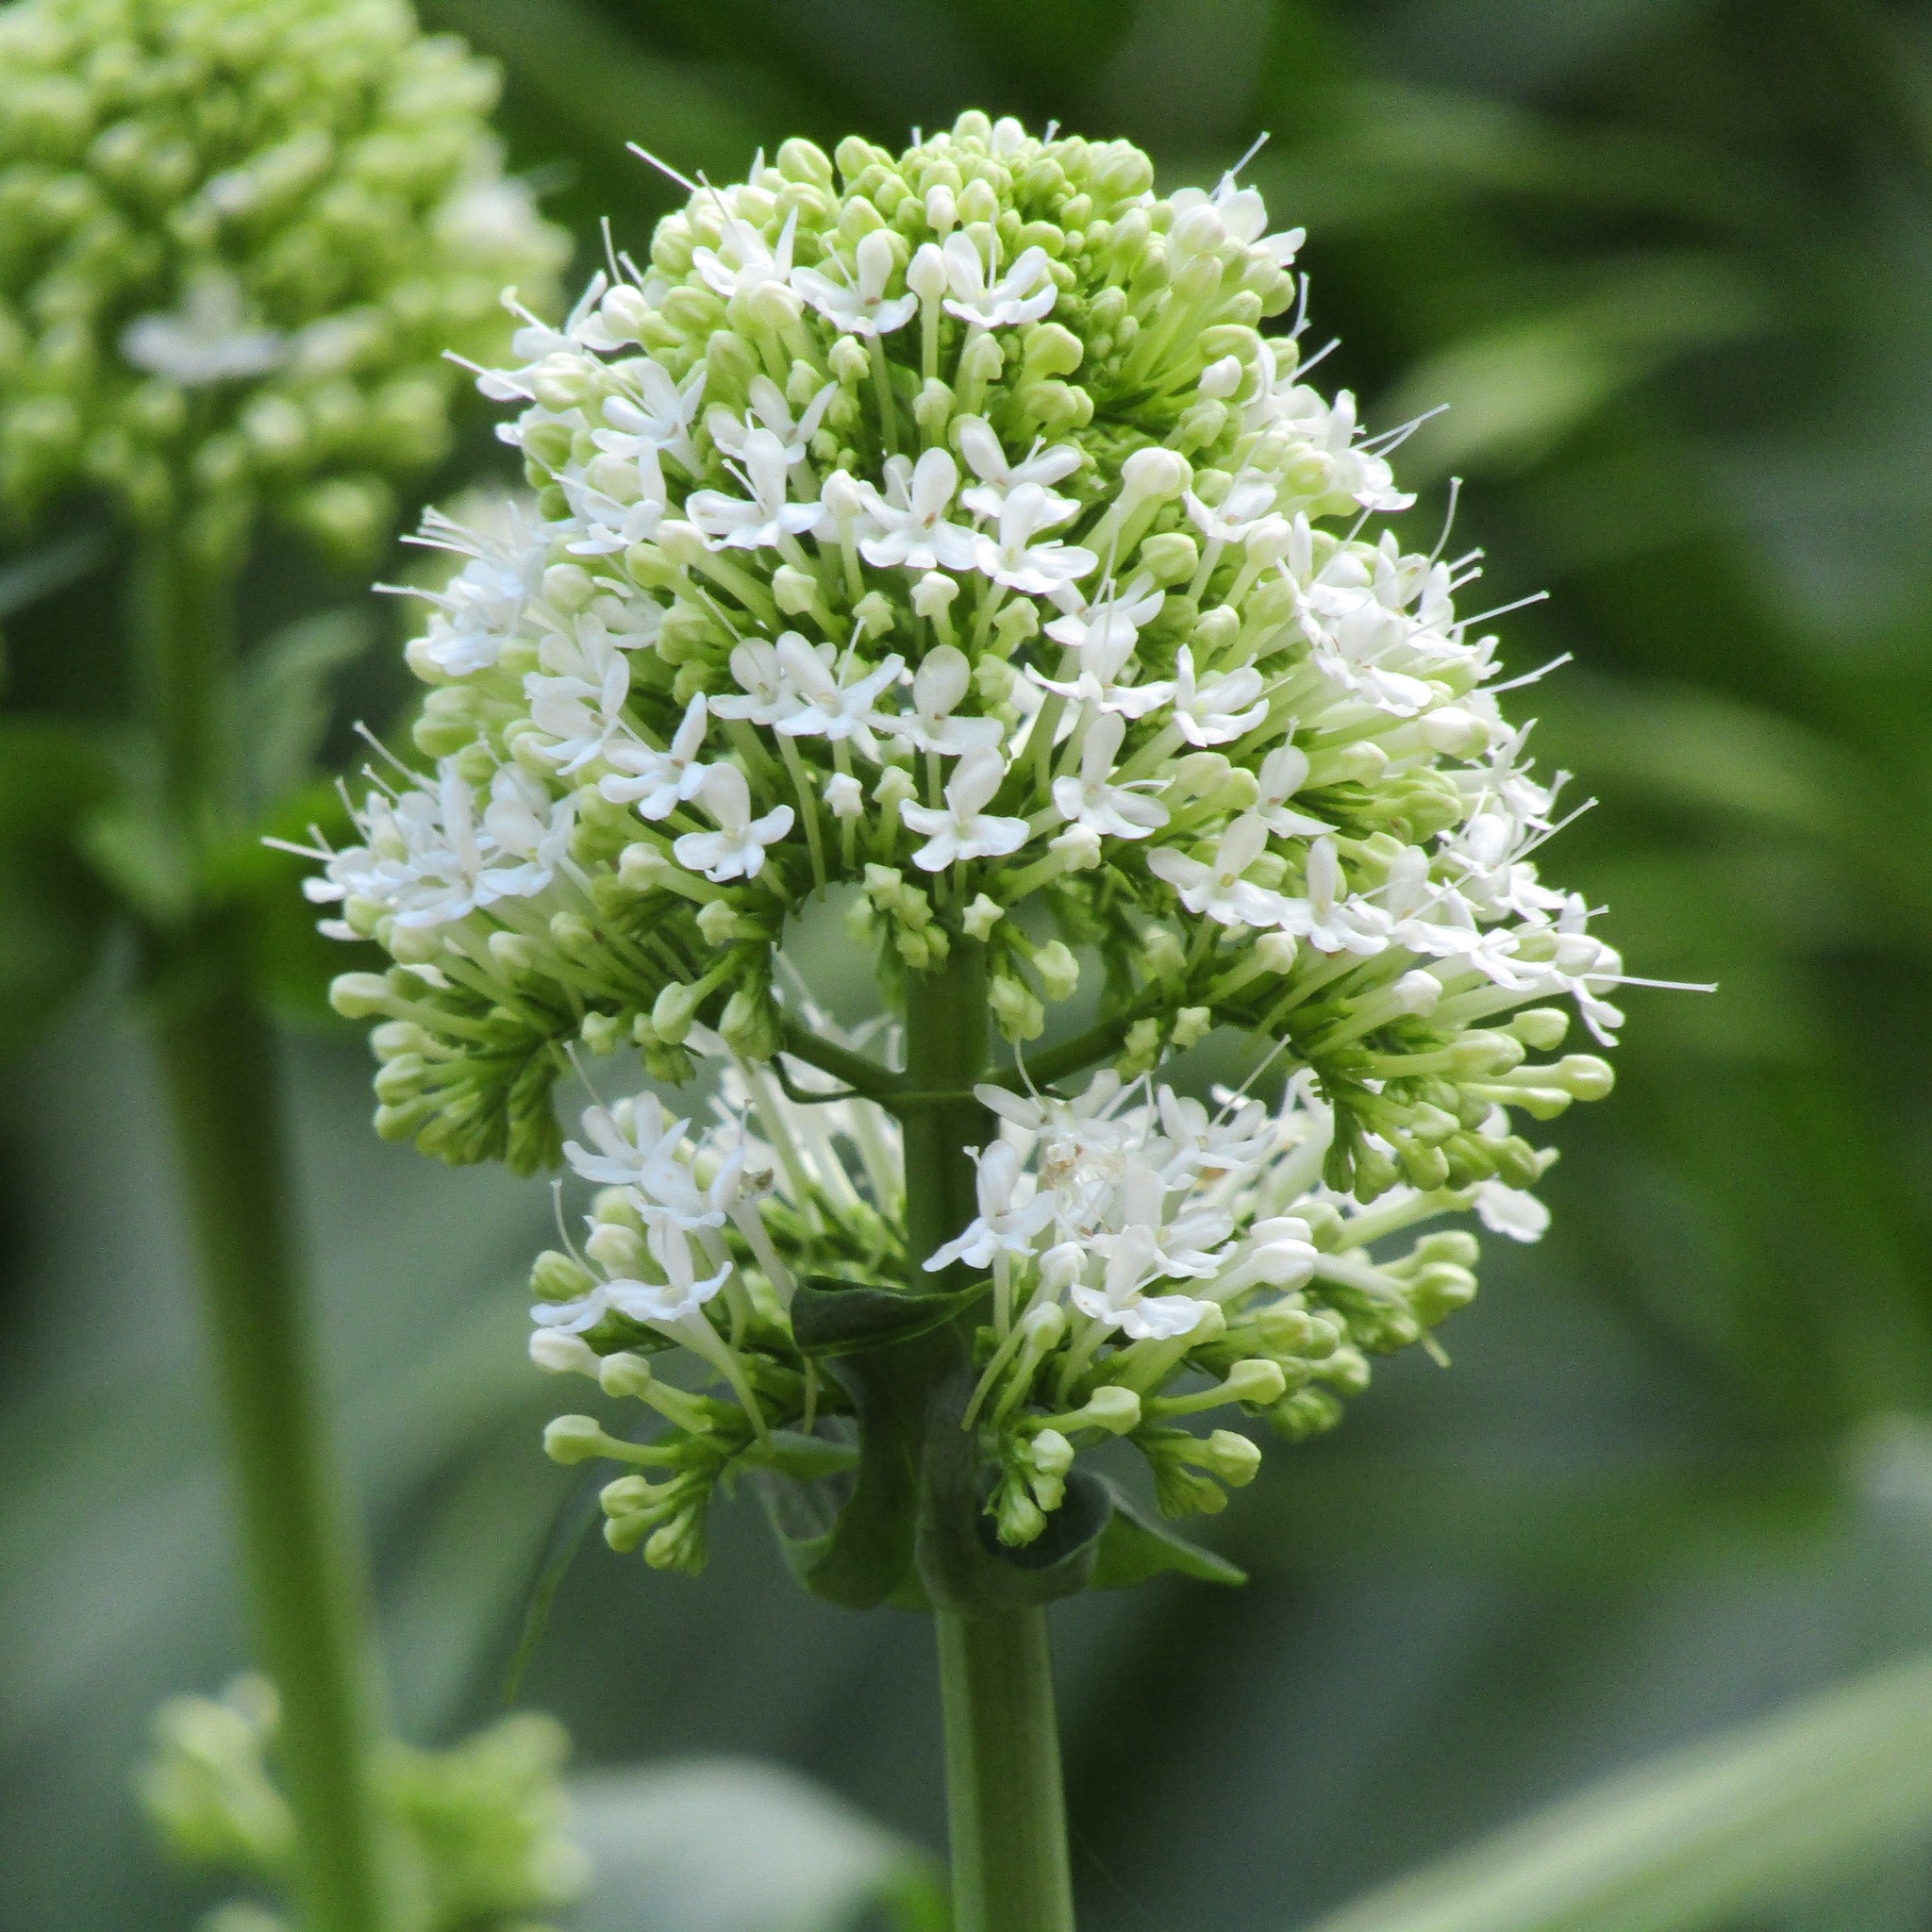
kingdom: Plantae
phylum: Tracheophyta
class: Magnoliopsida
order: Dipsacales
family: Caprifoliaceae
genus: Centranthus
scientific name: Centranthus ruber
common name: Red valerian
